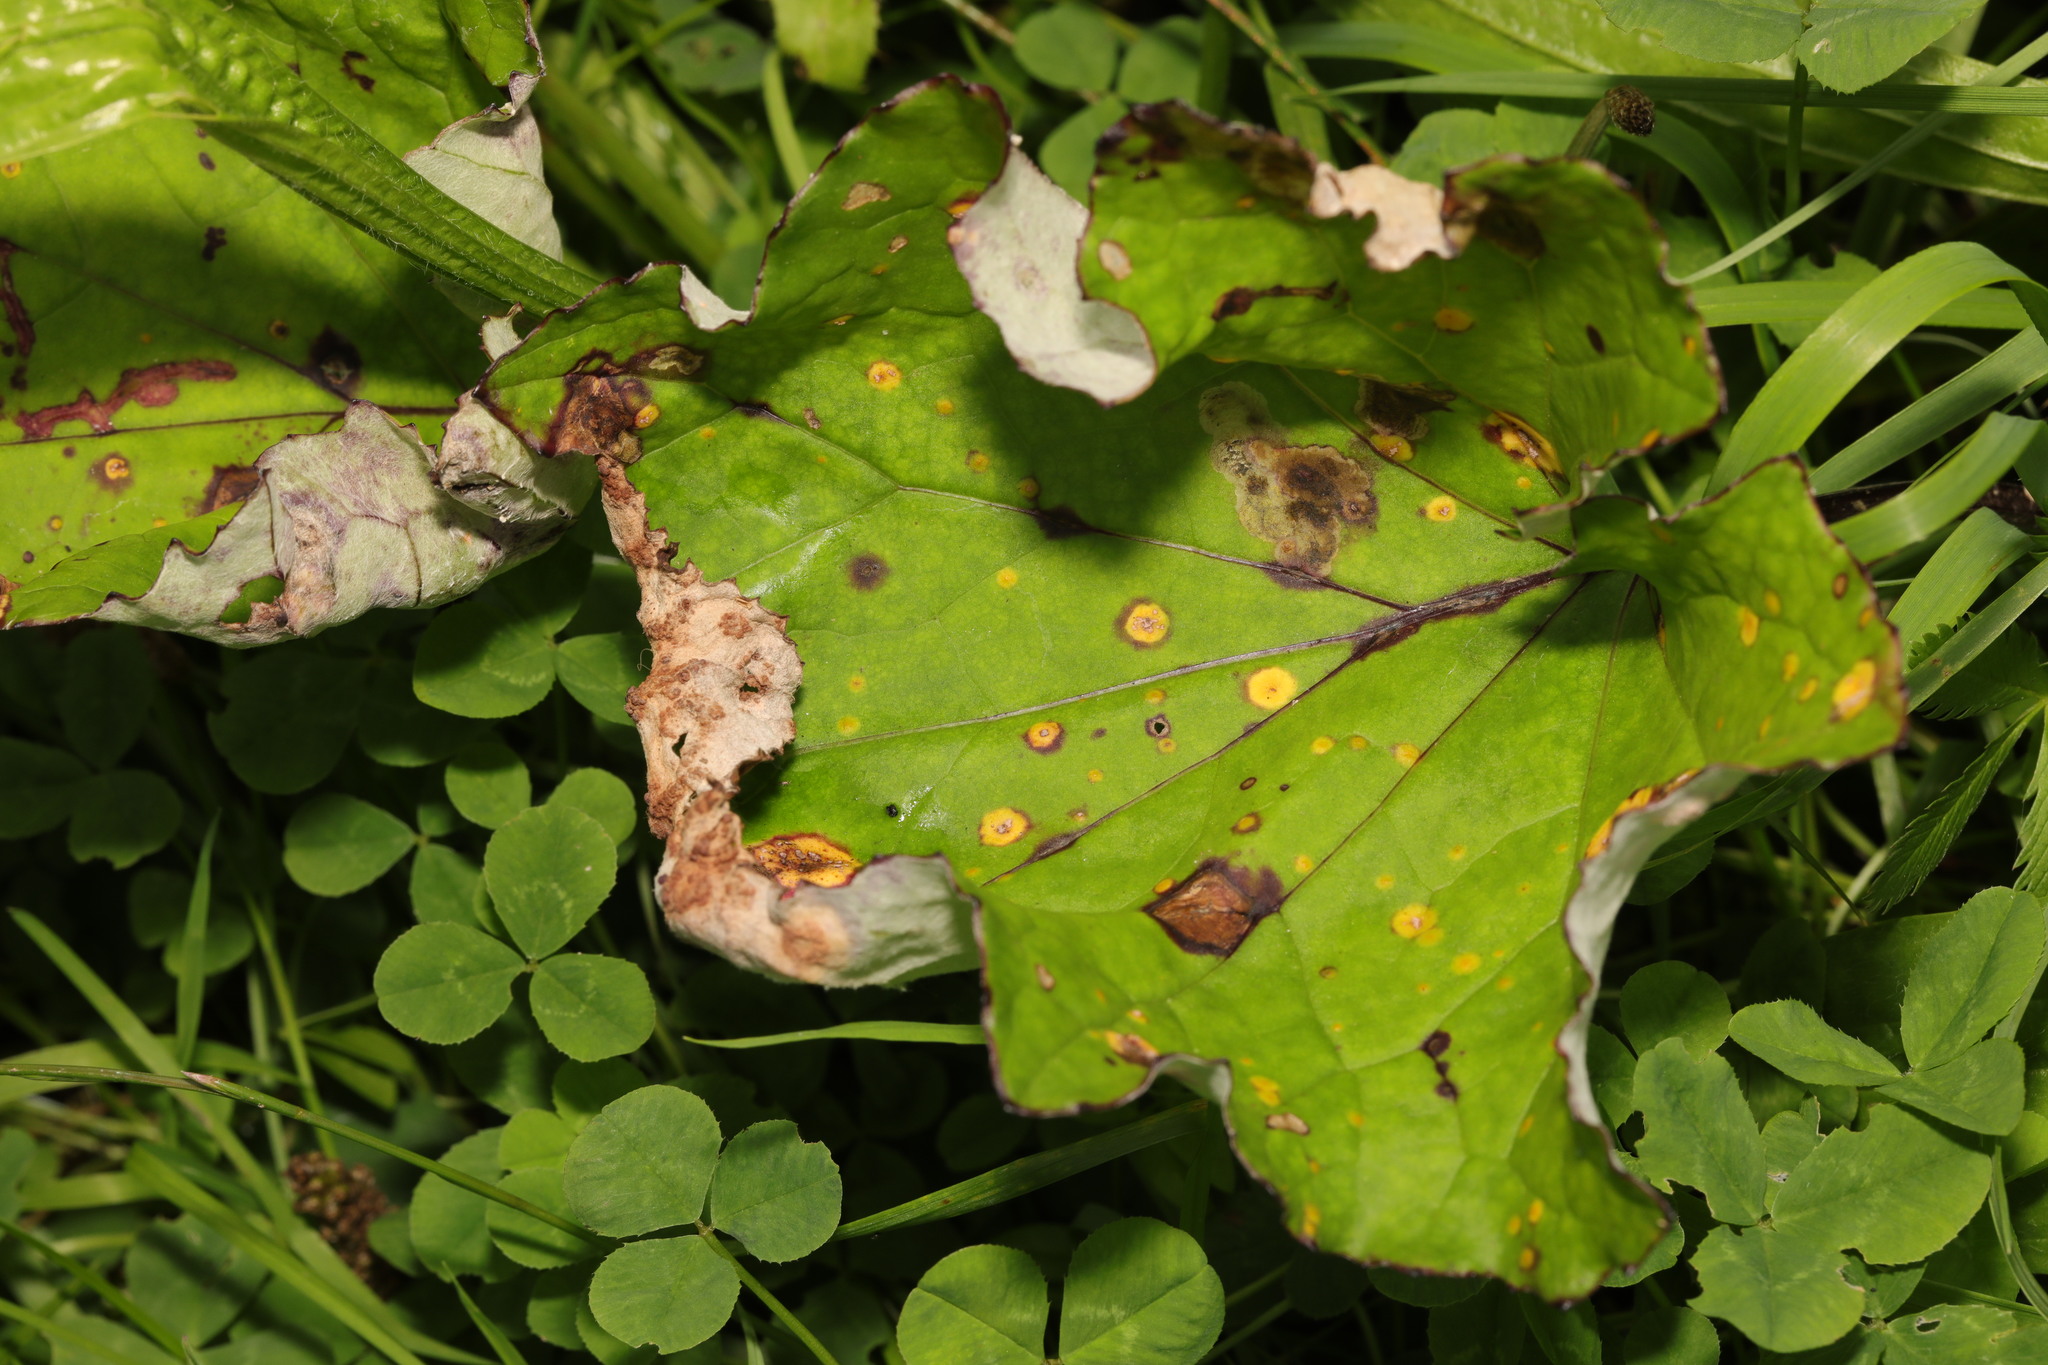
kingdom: Plantae
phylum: Tracheophyta
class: Magnoliopsida
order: Asterales
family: Asteraceae
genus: Tussilago
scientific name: Tussilago farfara
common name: Coltsfoot
